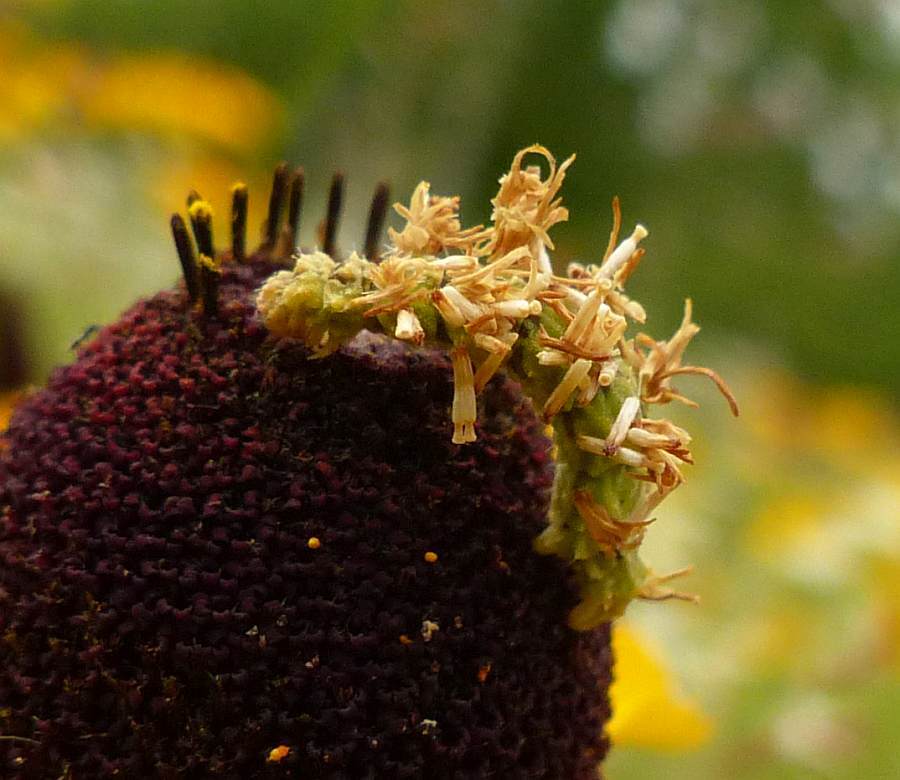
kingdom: Animalia
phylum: Arthropoda
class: Insecta
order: Lepidoptera
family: Geometridae
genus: Synchlora
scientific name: Synchlora aerata
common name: Wavy-lined emerald
